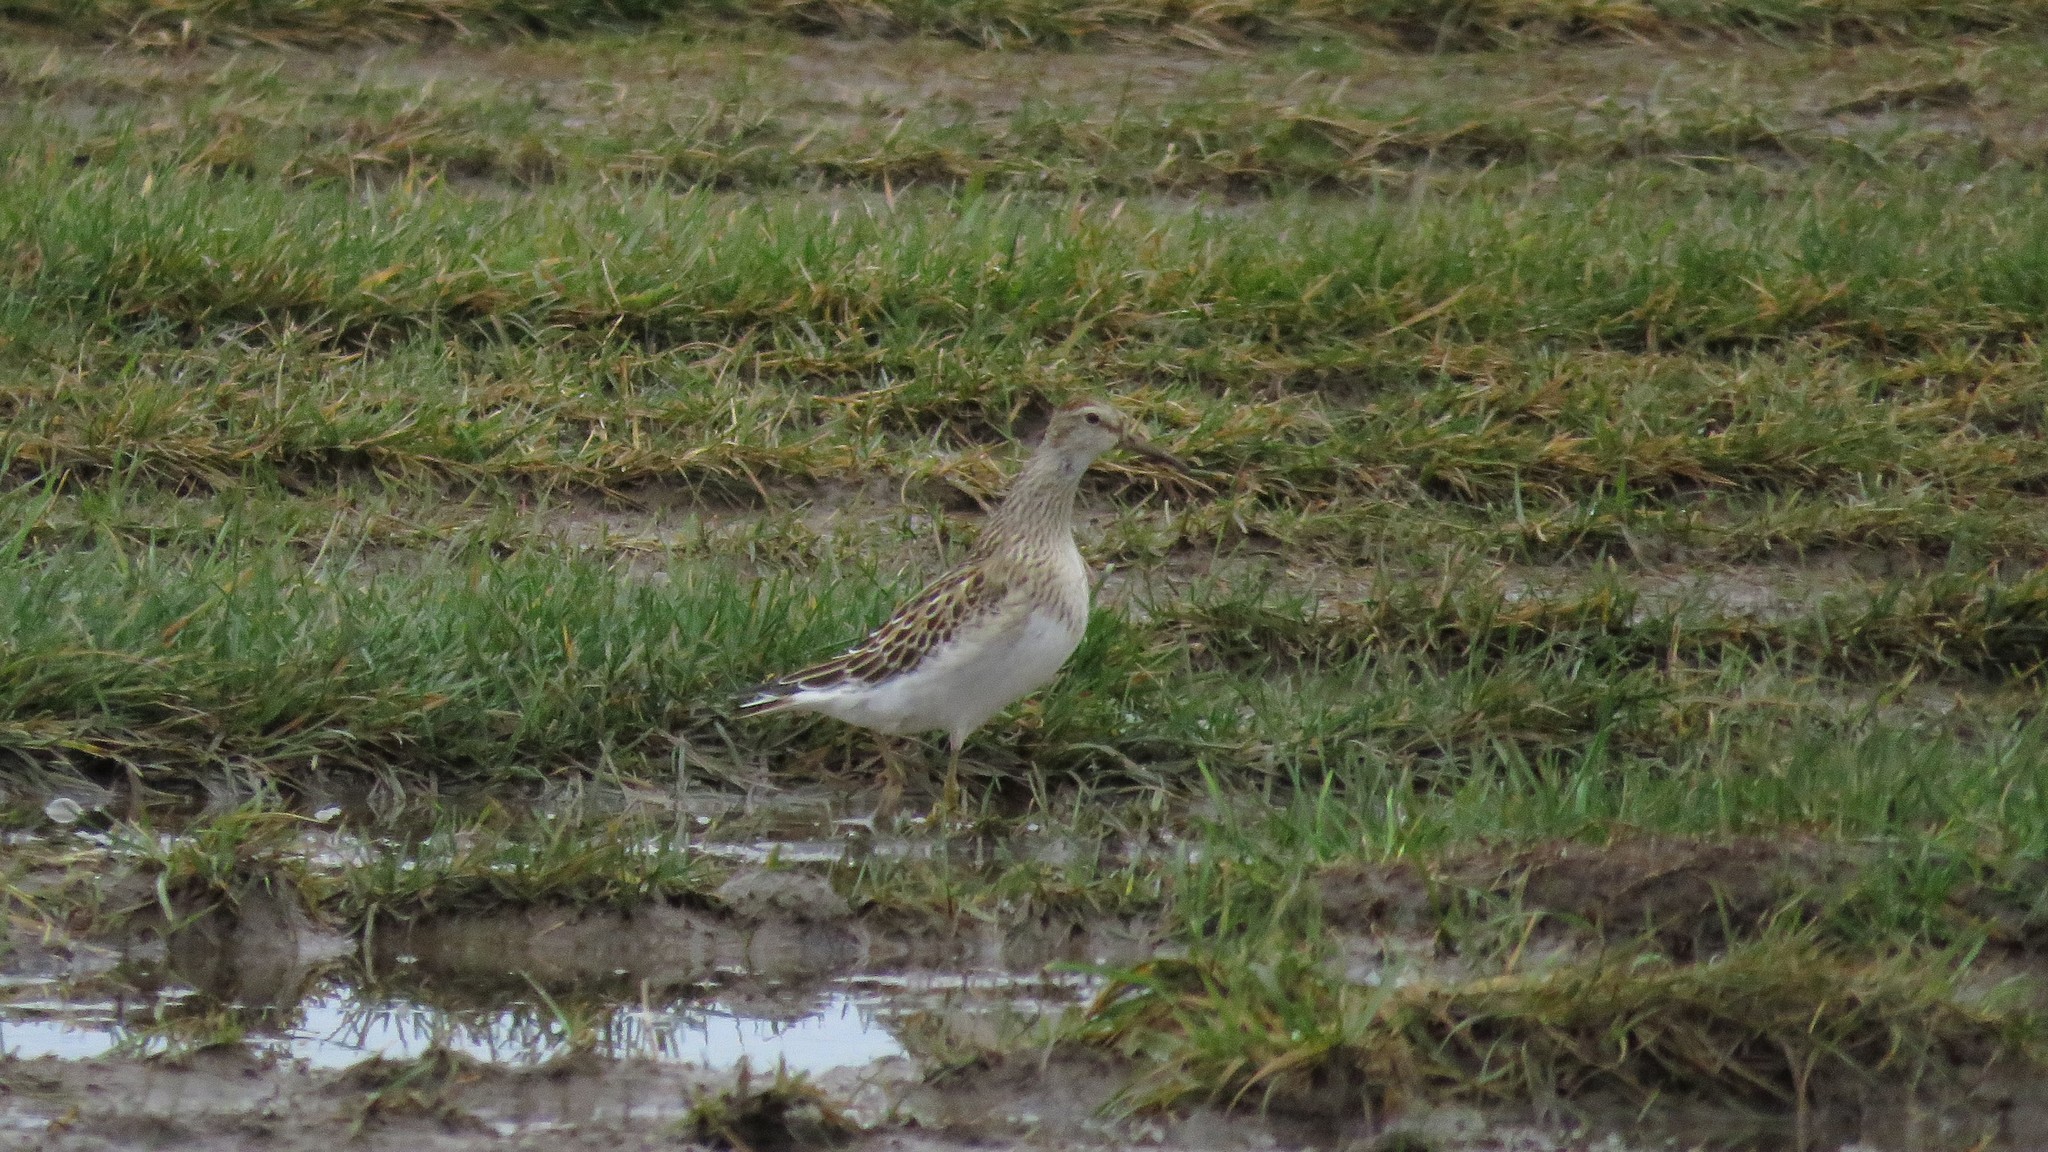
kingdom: Animalia
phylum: Chordata
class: Aves
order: Charadriiformes
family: Scolopacidae
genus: Calidris
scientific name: Calidris melanotos
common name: Pectoral sandpiper
